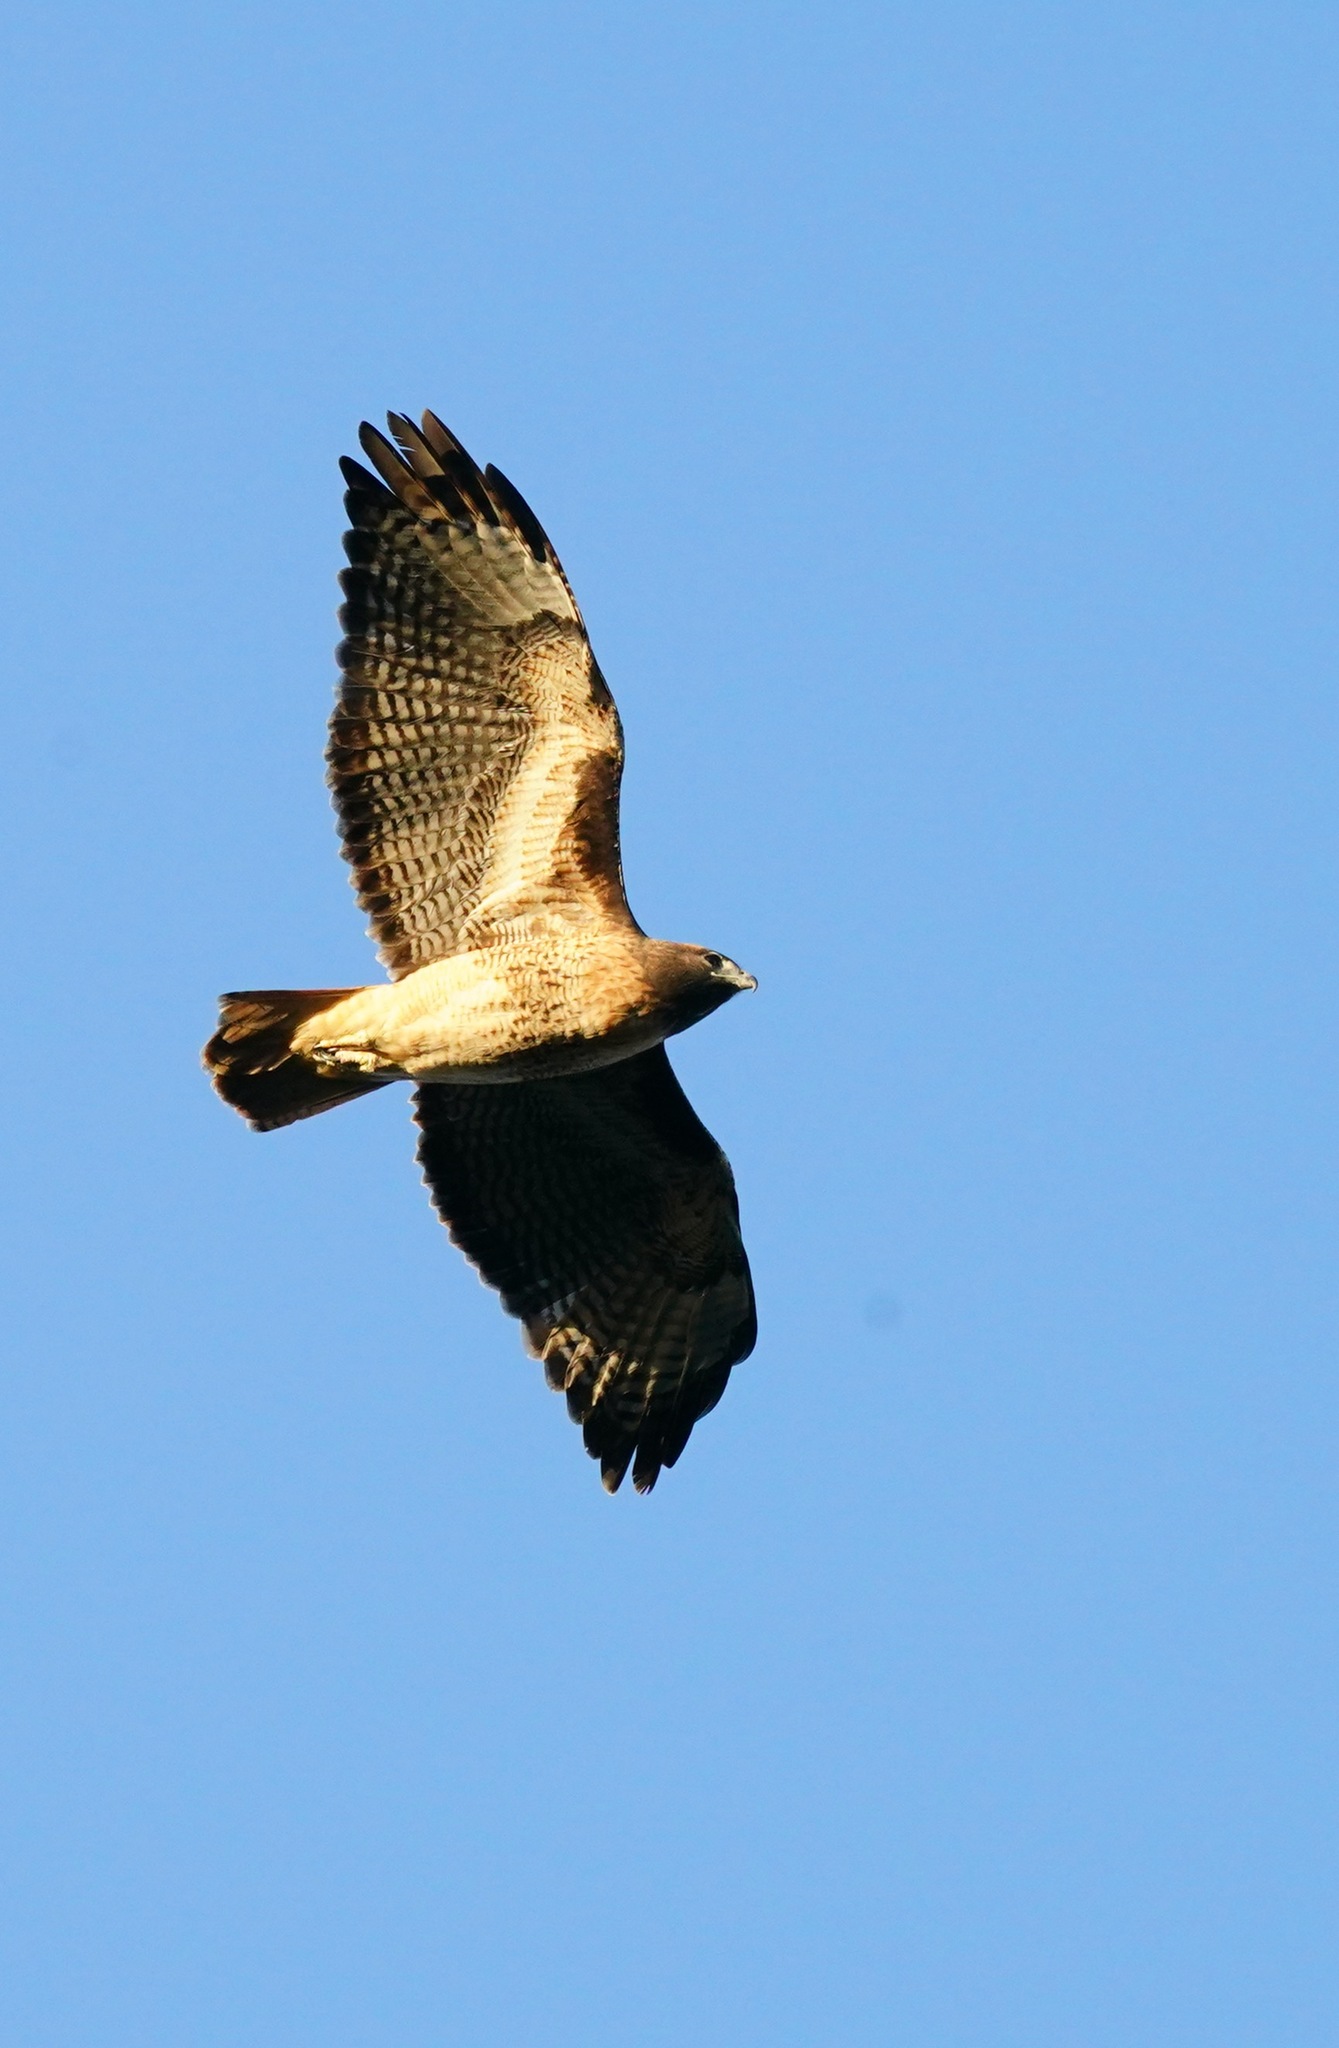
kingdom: Animalia
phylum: Chordata
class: Aves
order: Accipitriformes
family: Accipitridae
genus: Buteo
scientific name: Buteo jamaicensis
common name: Red-tailed hawk
